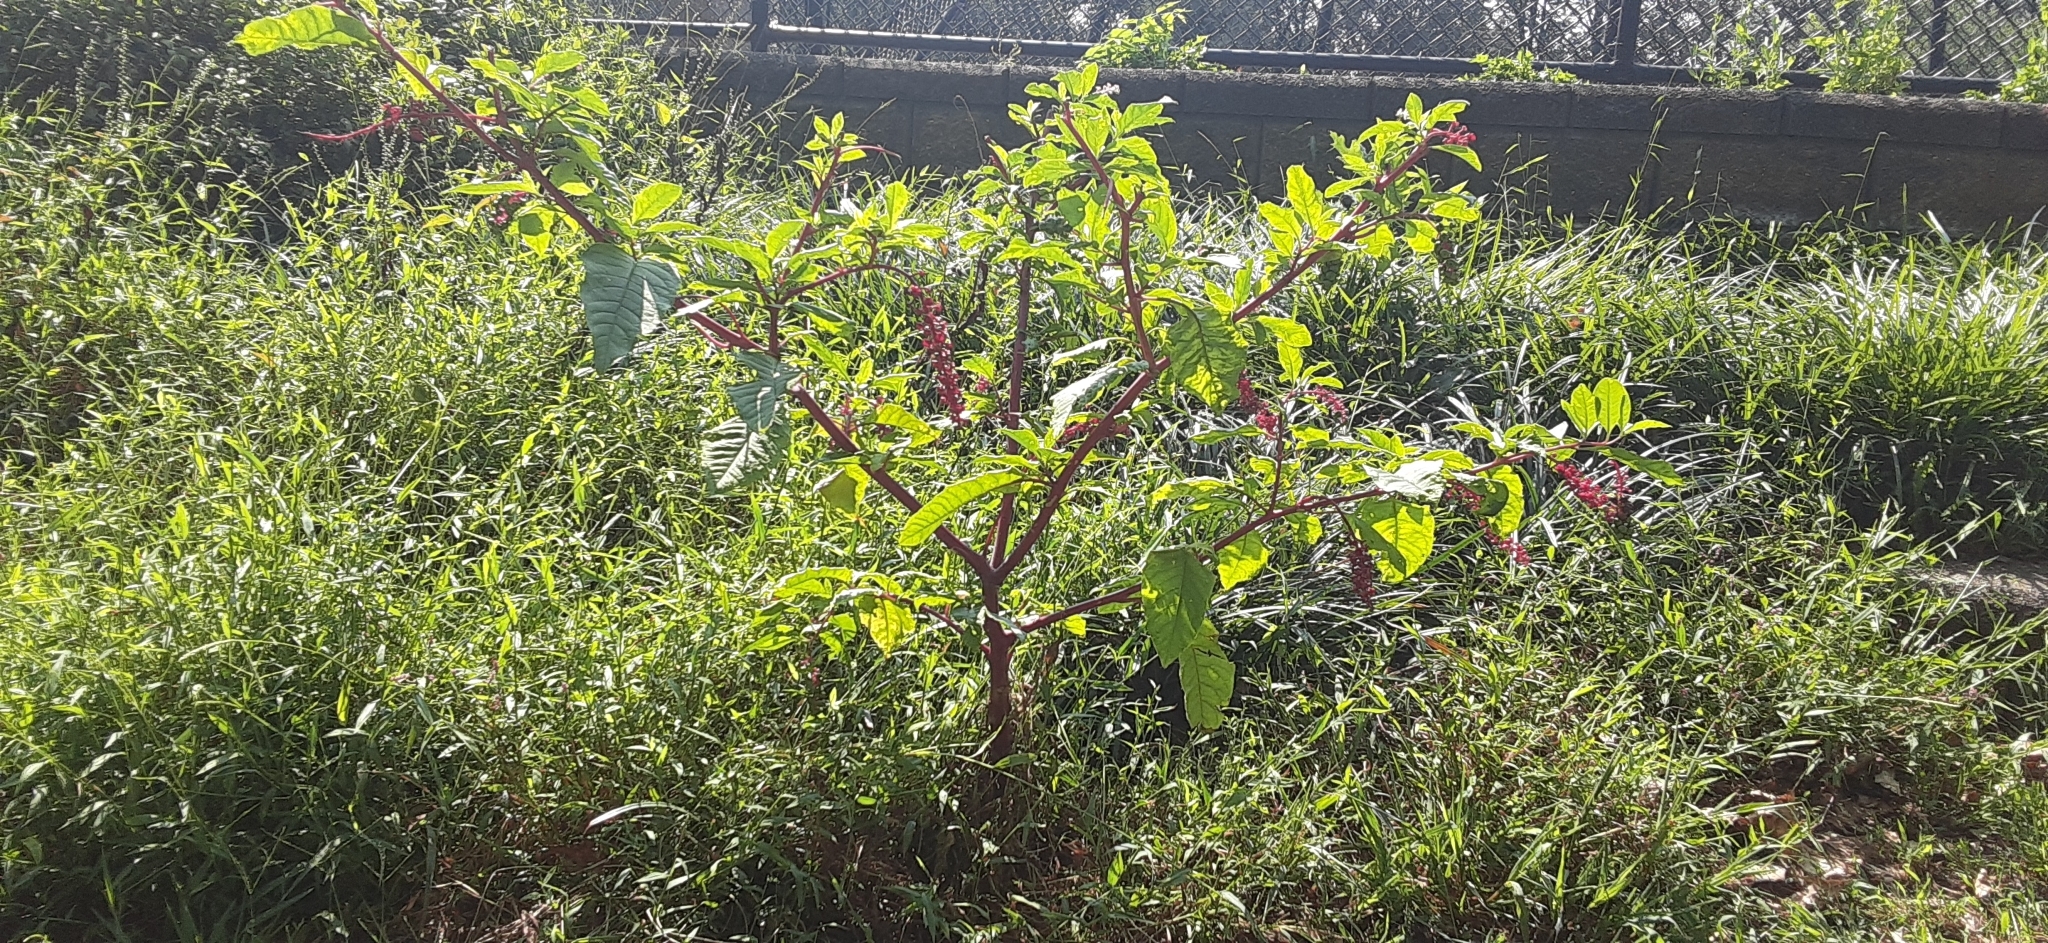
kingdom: Plantae
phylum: Tracheophyta
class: Magnoliopsida
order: Caryophyllales
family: Phytolaccaceae
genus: Phytolacca
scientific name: Phytolacca americana
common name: American pokeweed
